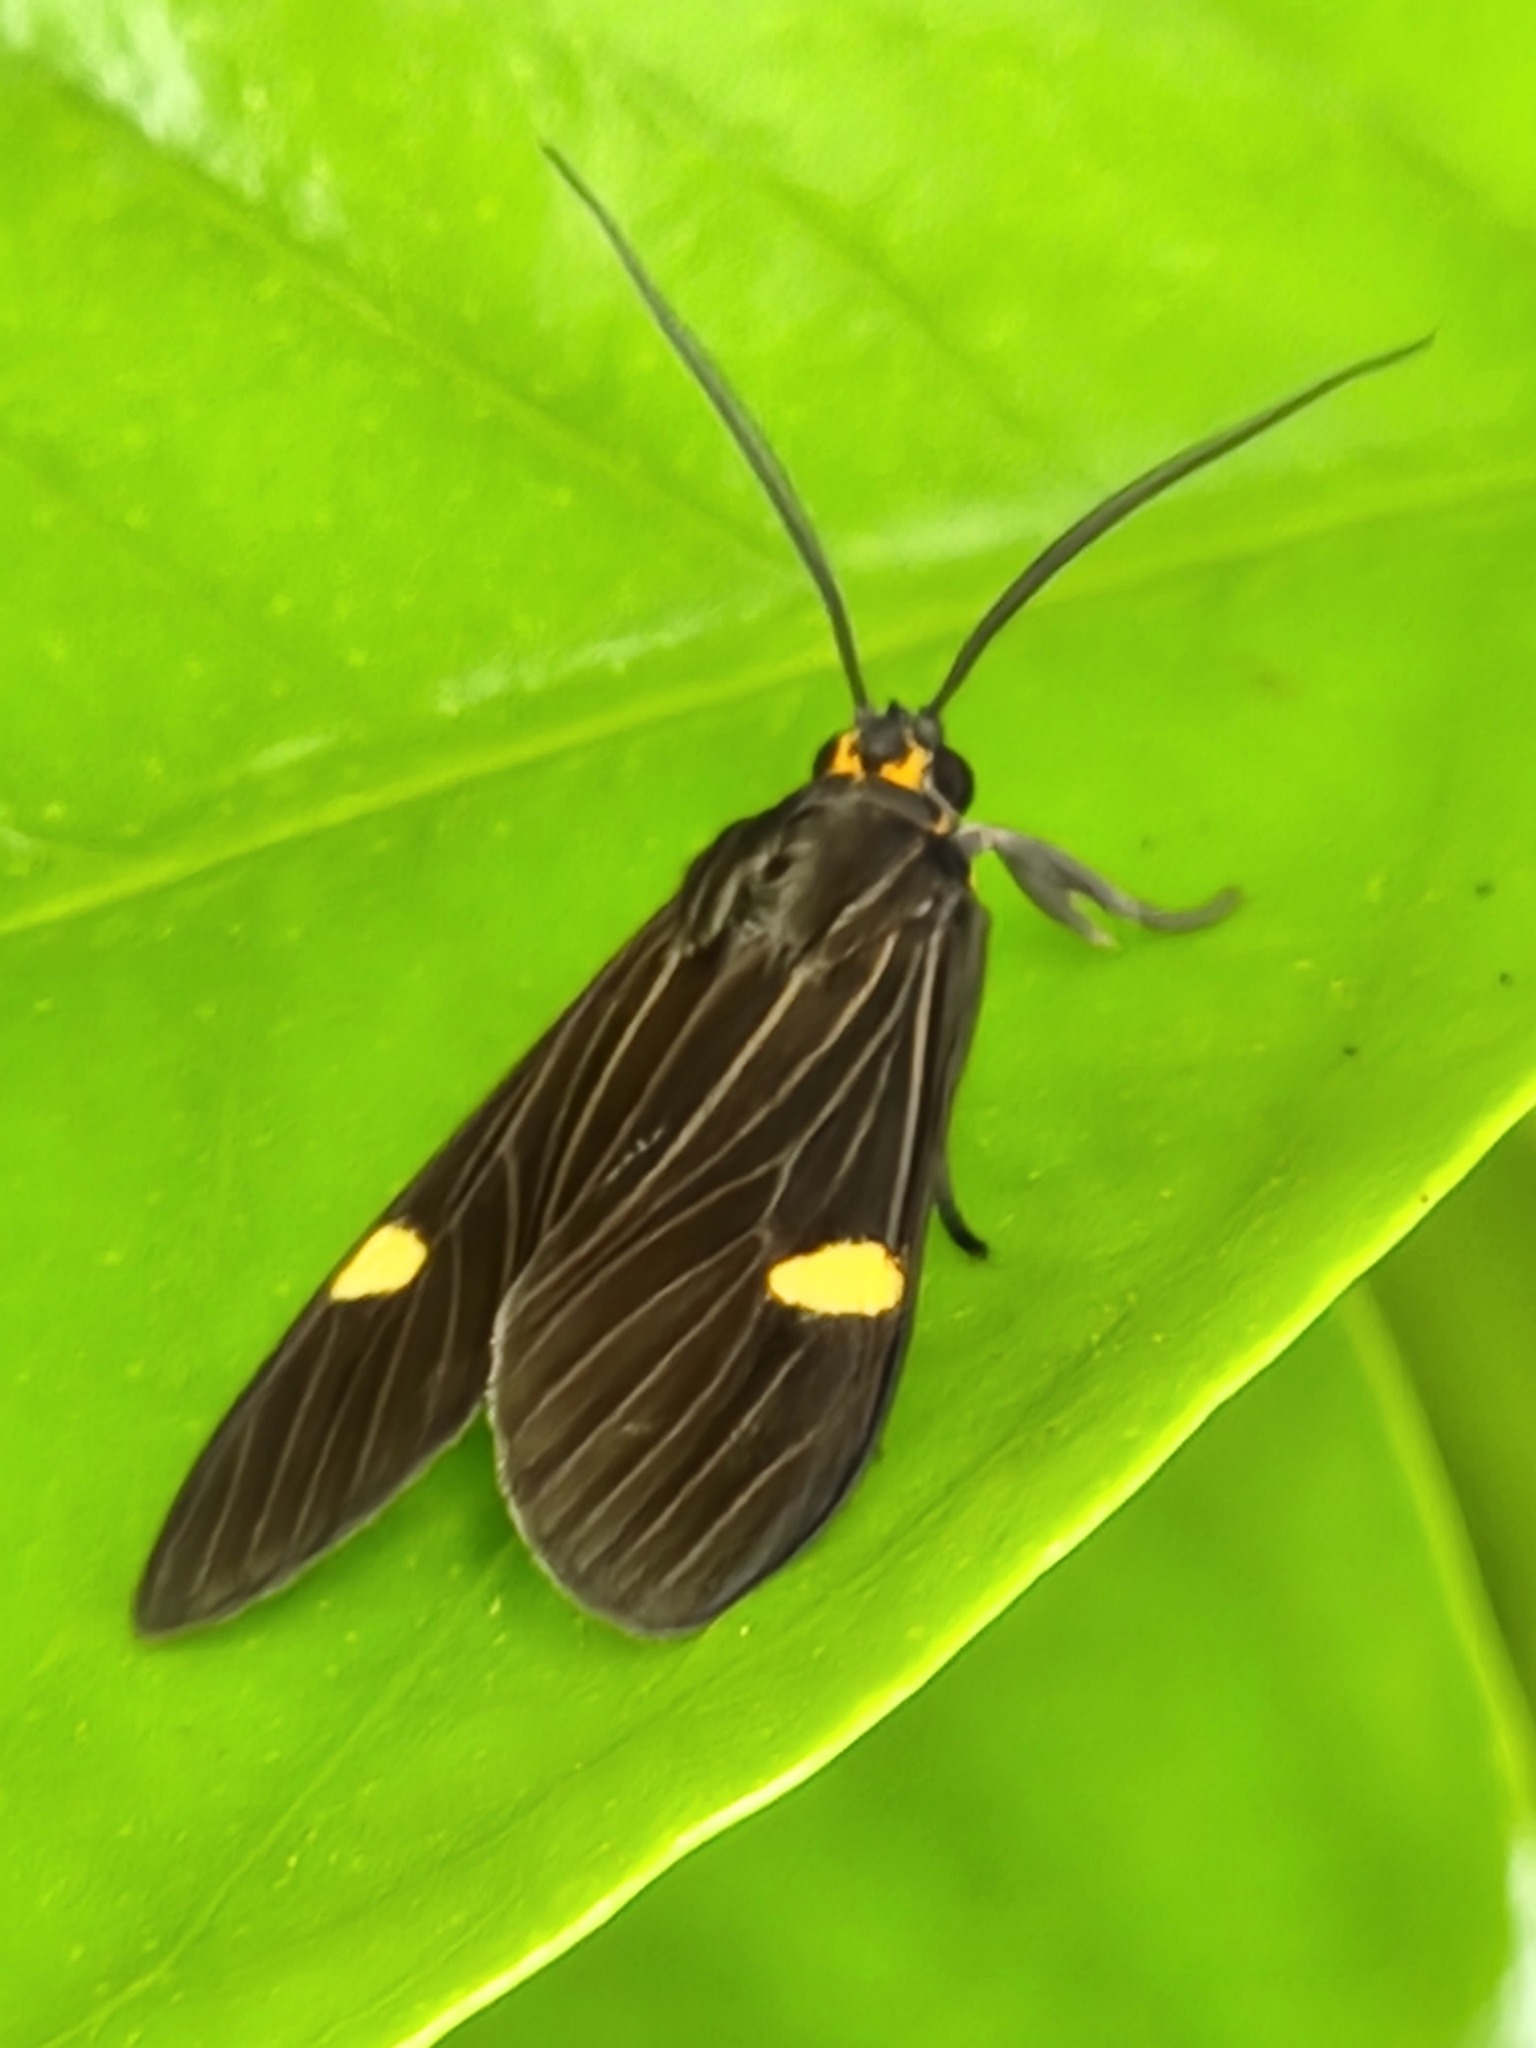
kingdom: Animalia
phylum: Arthropoda
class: Insecta
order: Lepidoptera
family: Erebidae
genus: Aclytia
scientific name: Aclytia punctata
